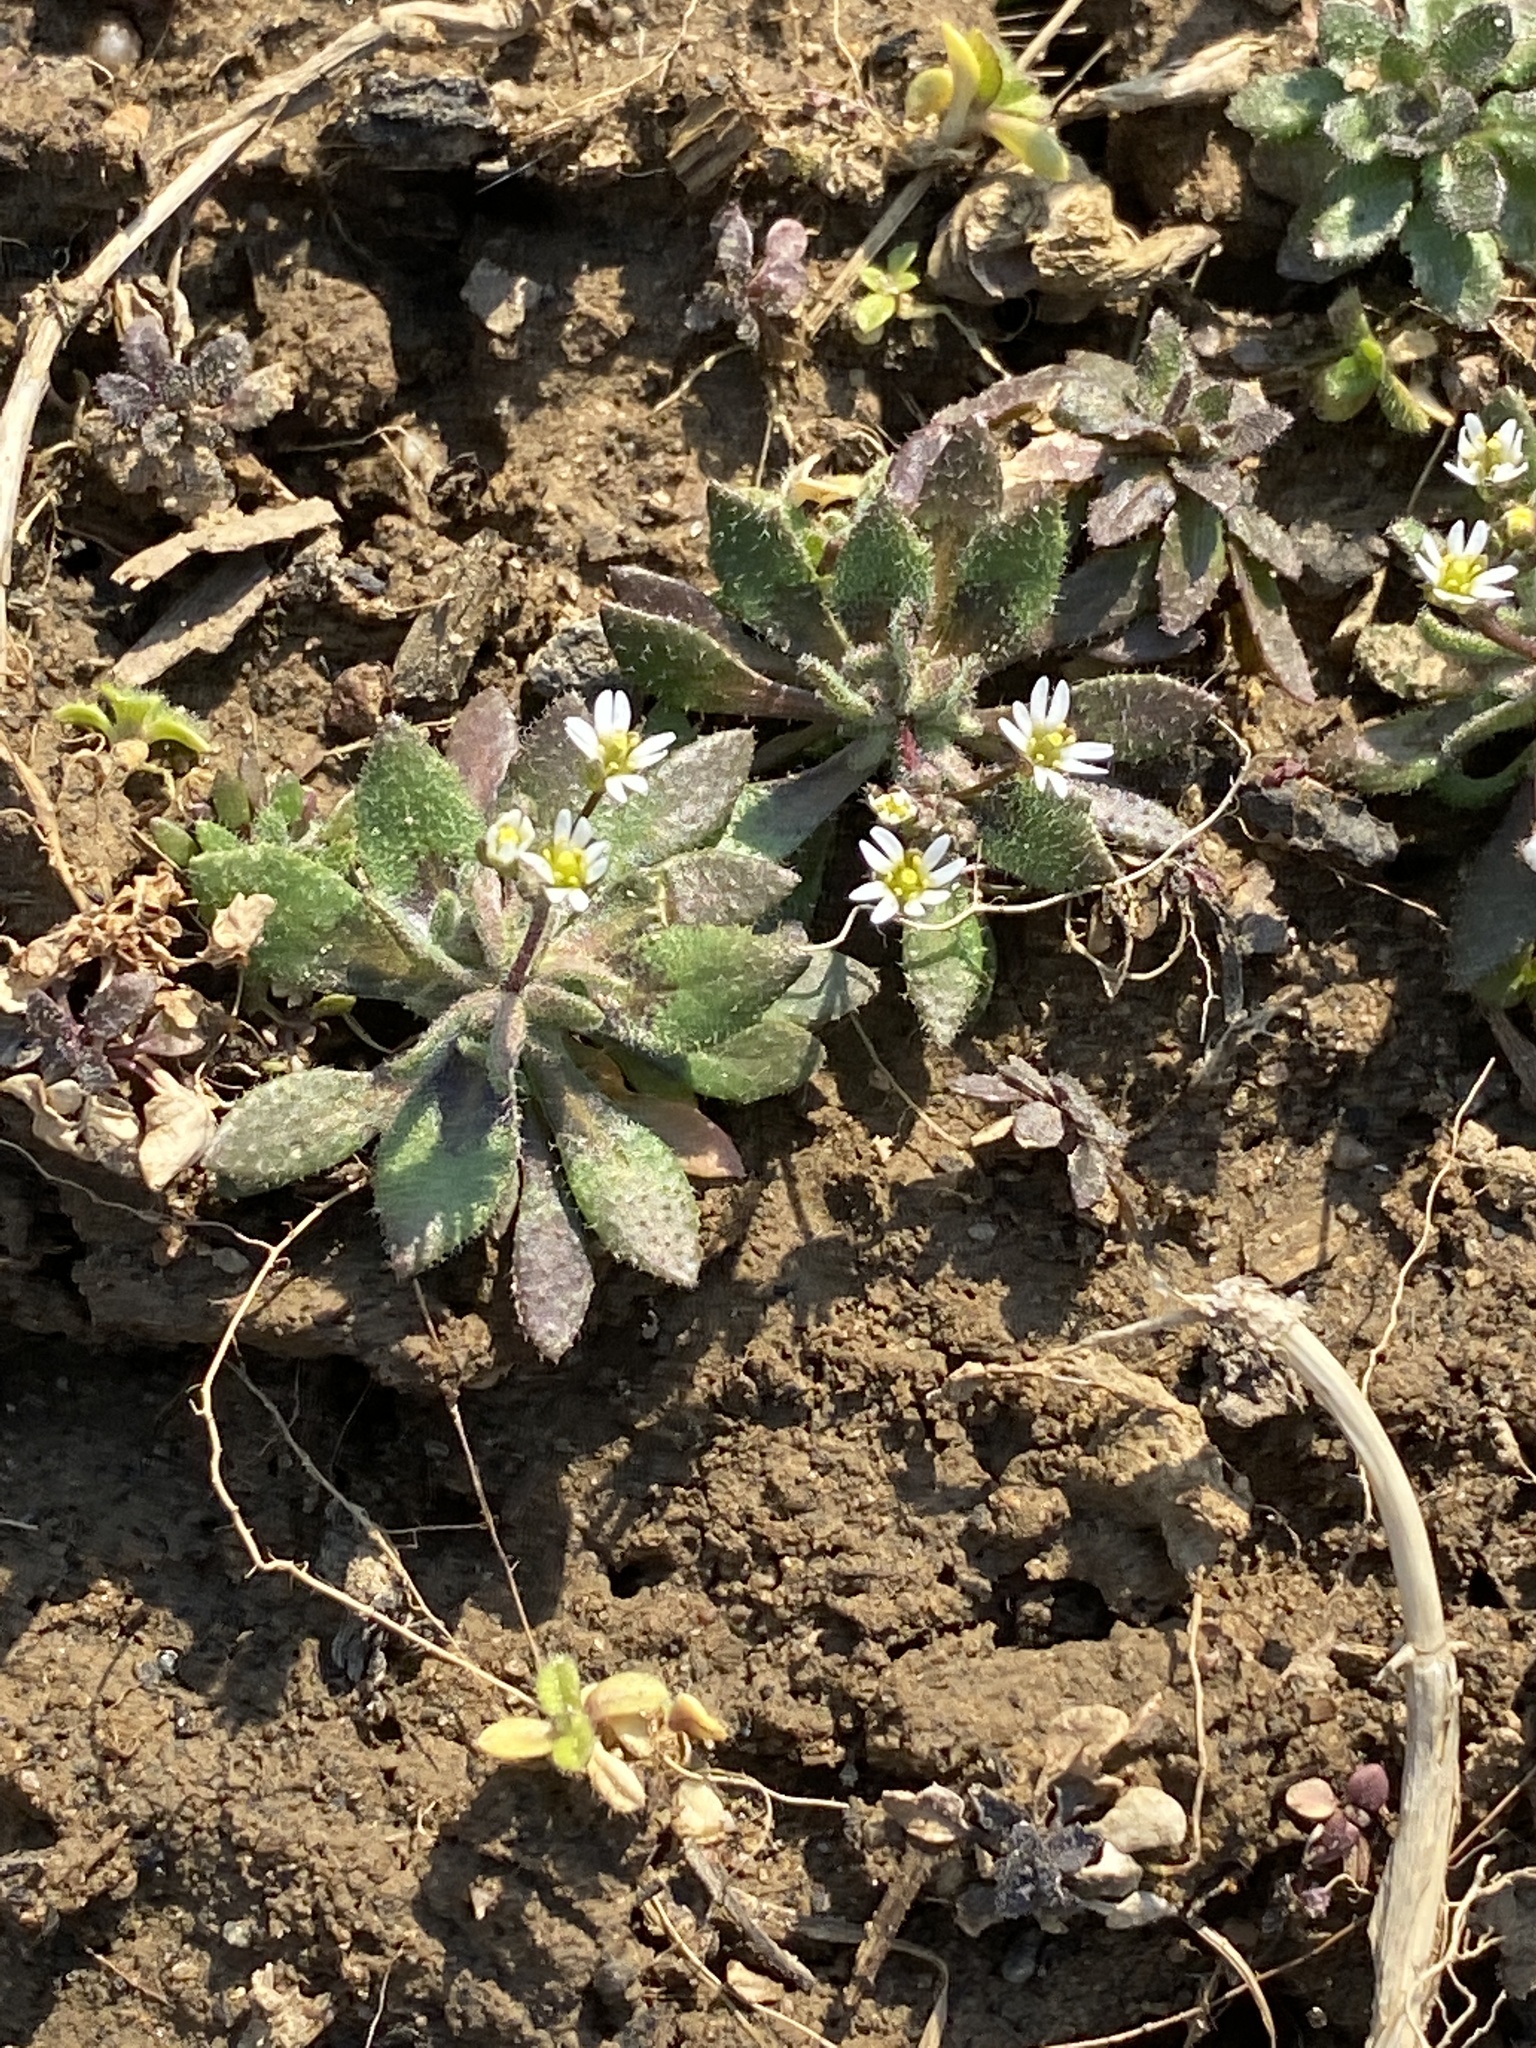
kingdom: Plantae
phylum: Tracheophyta
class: Magnoliopsida
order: Brassicales
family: Brassicaceae
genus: Draba
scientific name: Draba verna
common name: Spring draba
